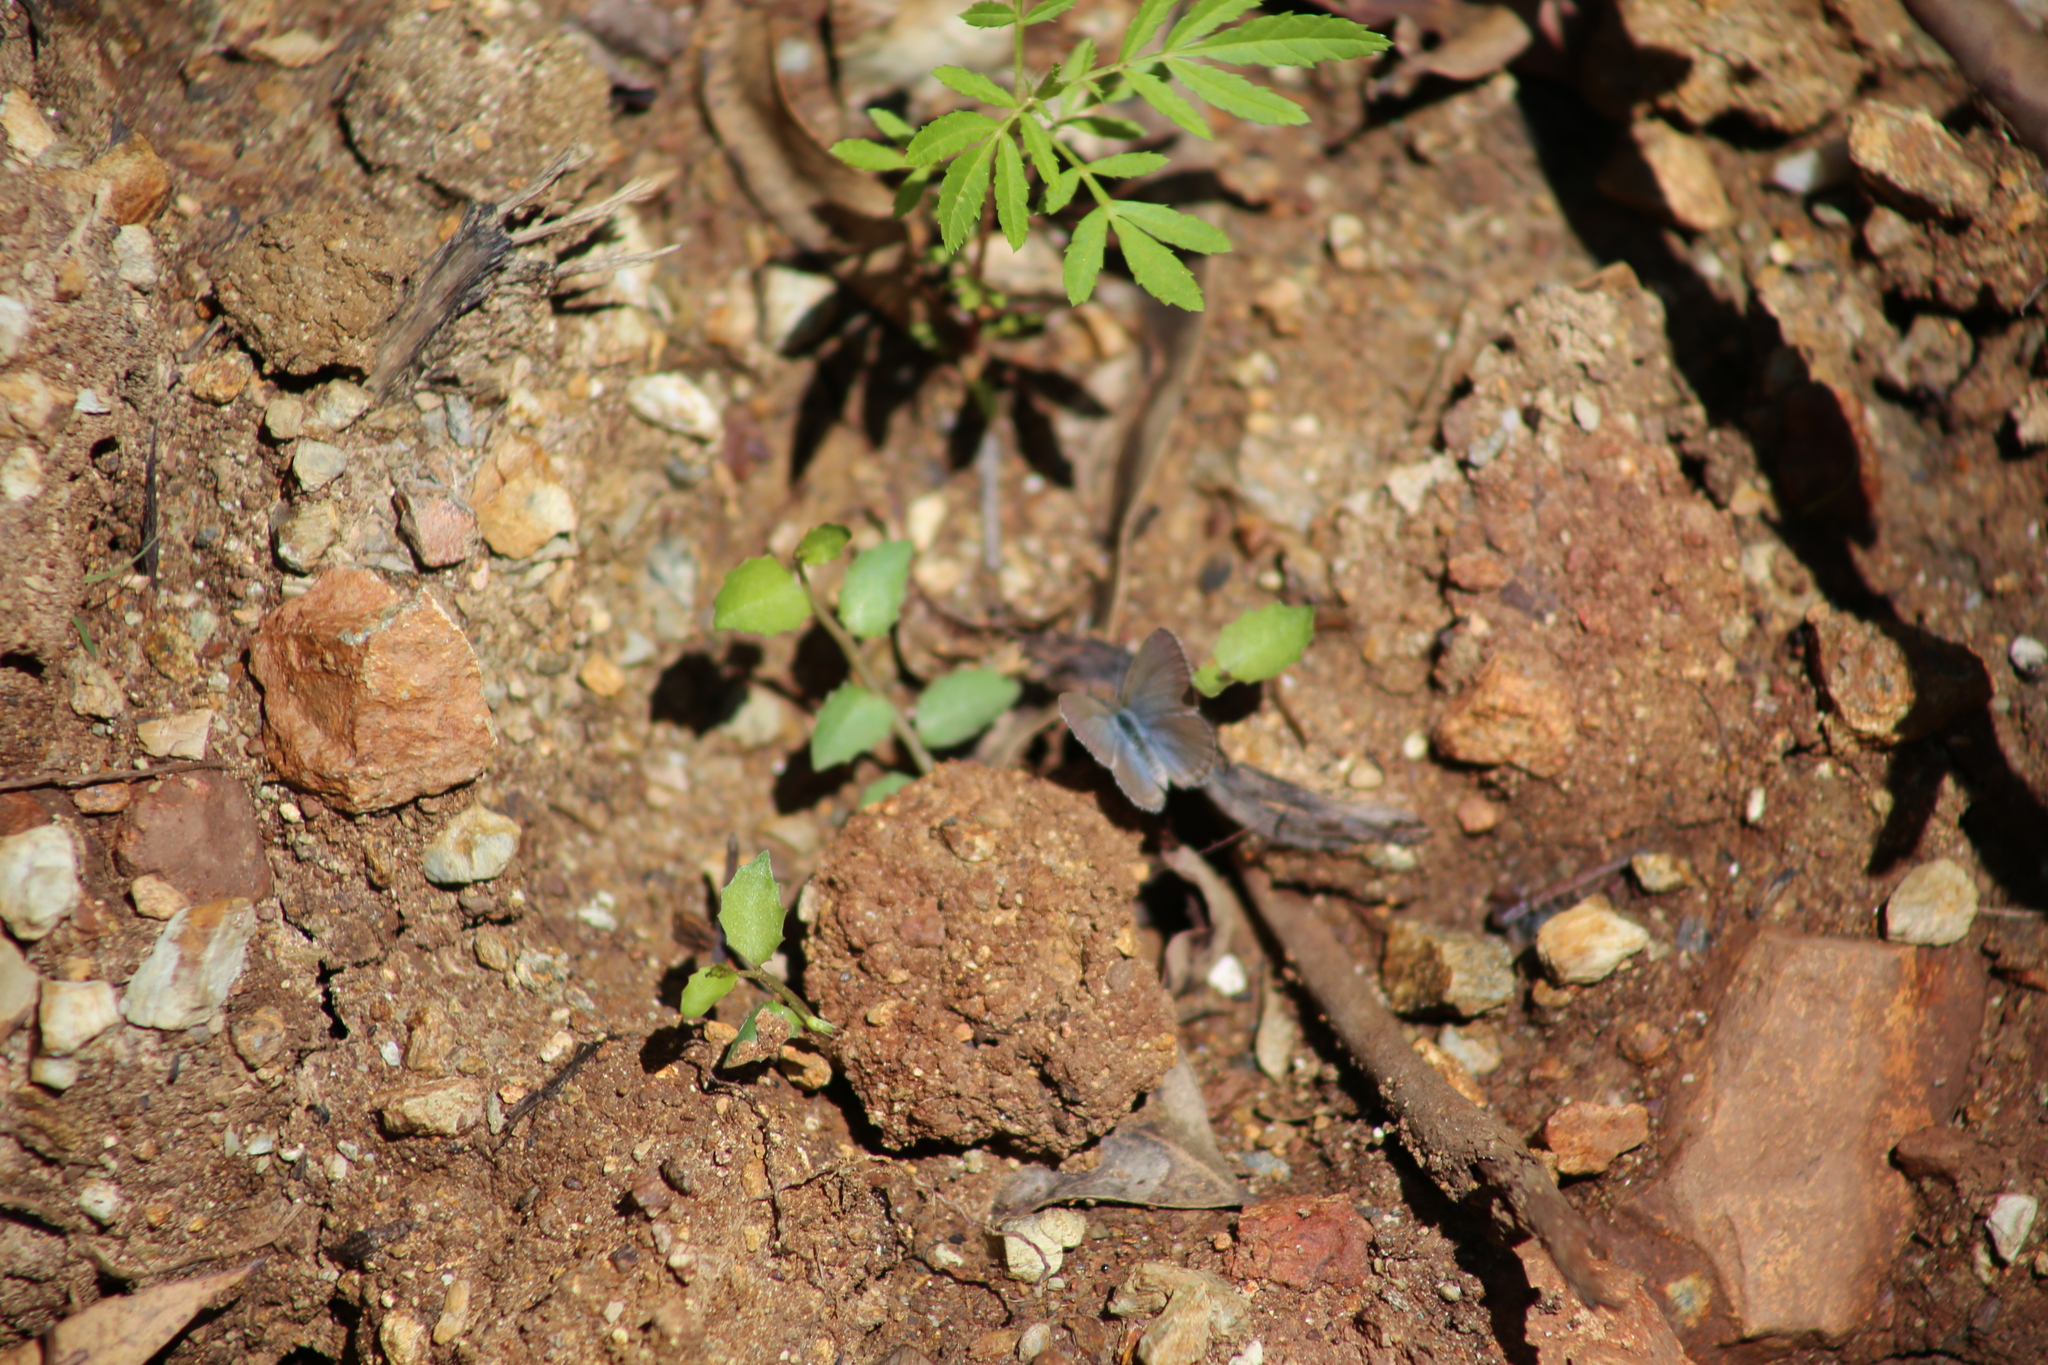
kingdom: Animalia
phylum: Arthropoda
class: Insecta
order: Lepidoptera
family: Lycaenidae
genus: Zizina
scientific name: Zizina labradus
